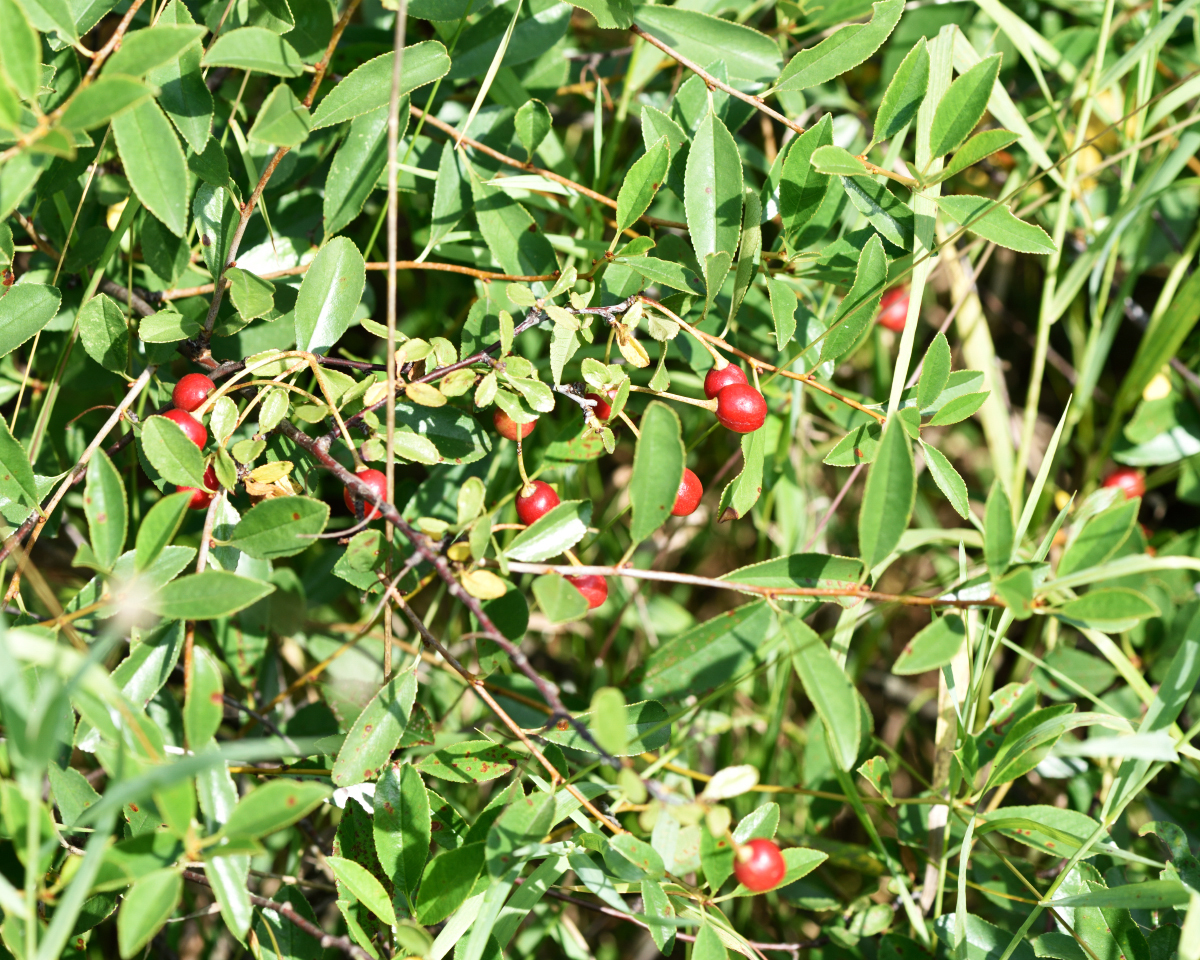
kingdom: Plantae
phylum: Tracheophyta
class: Magnoliopsida
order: Rosales
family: Rosaceae
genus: Prunus
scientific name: Prunus fruticosa
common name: European dwarf cherry
